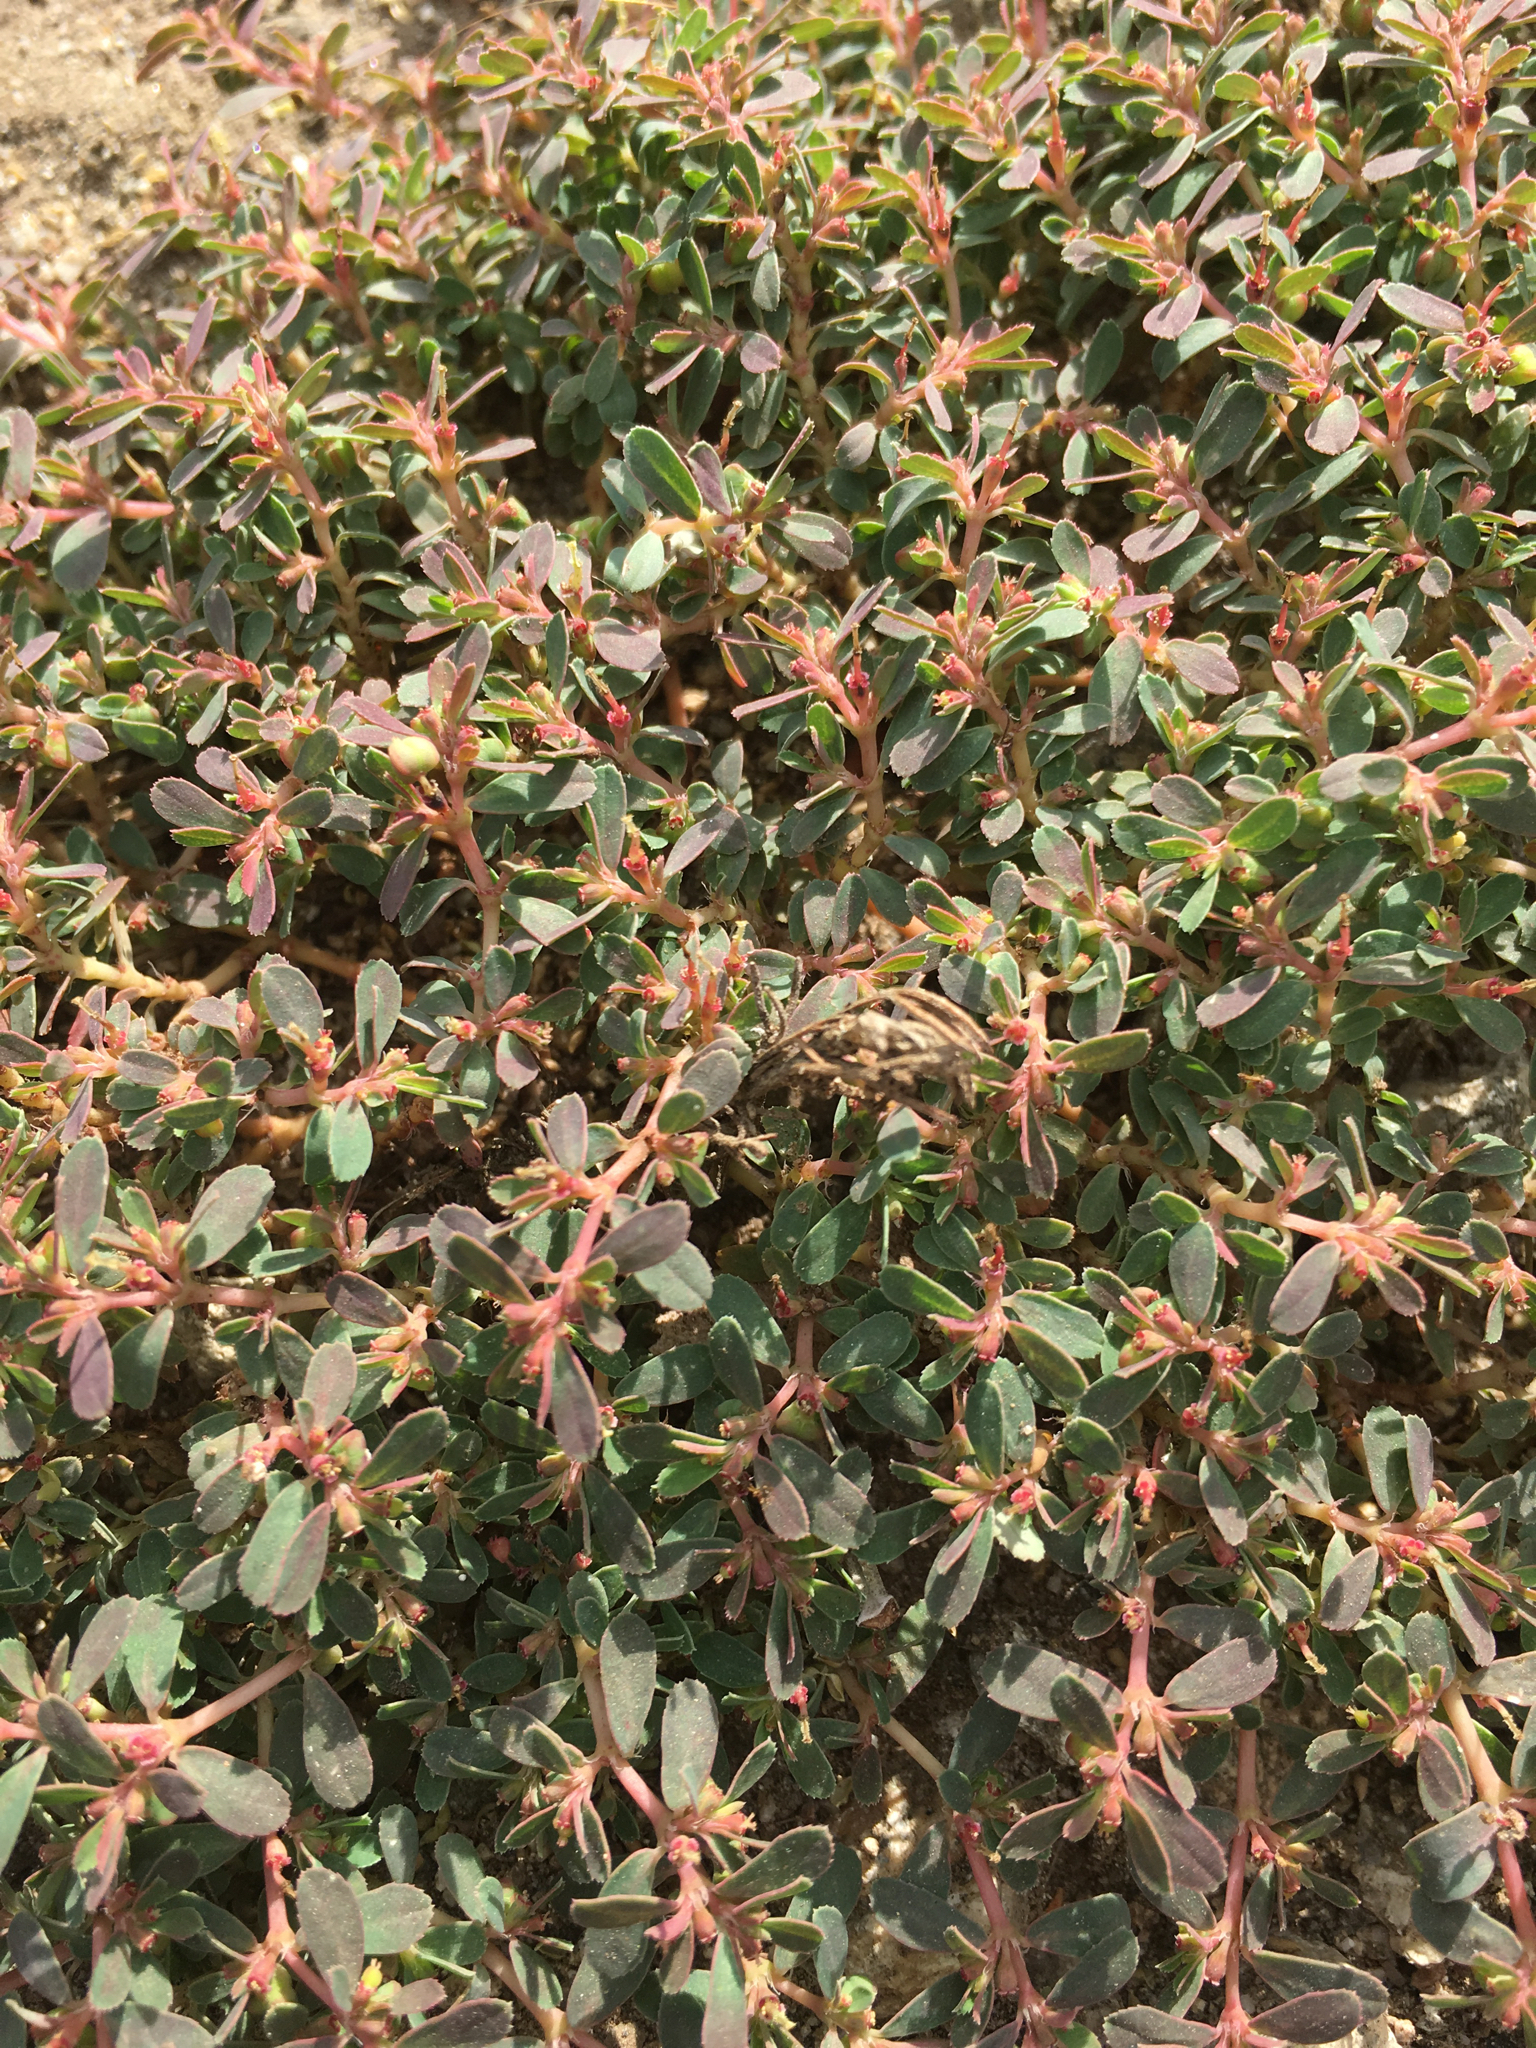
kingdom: Plantae
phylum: Tracheophyta
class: Magnoliopsida
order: Malpighiales
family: Euphorbiaceae
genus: Euphorbia
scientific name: Euphorbia serpillifolia
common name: Thyme-leaf spurge
